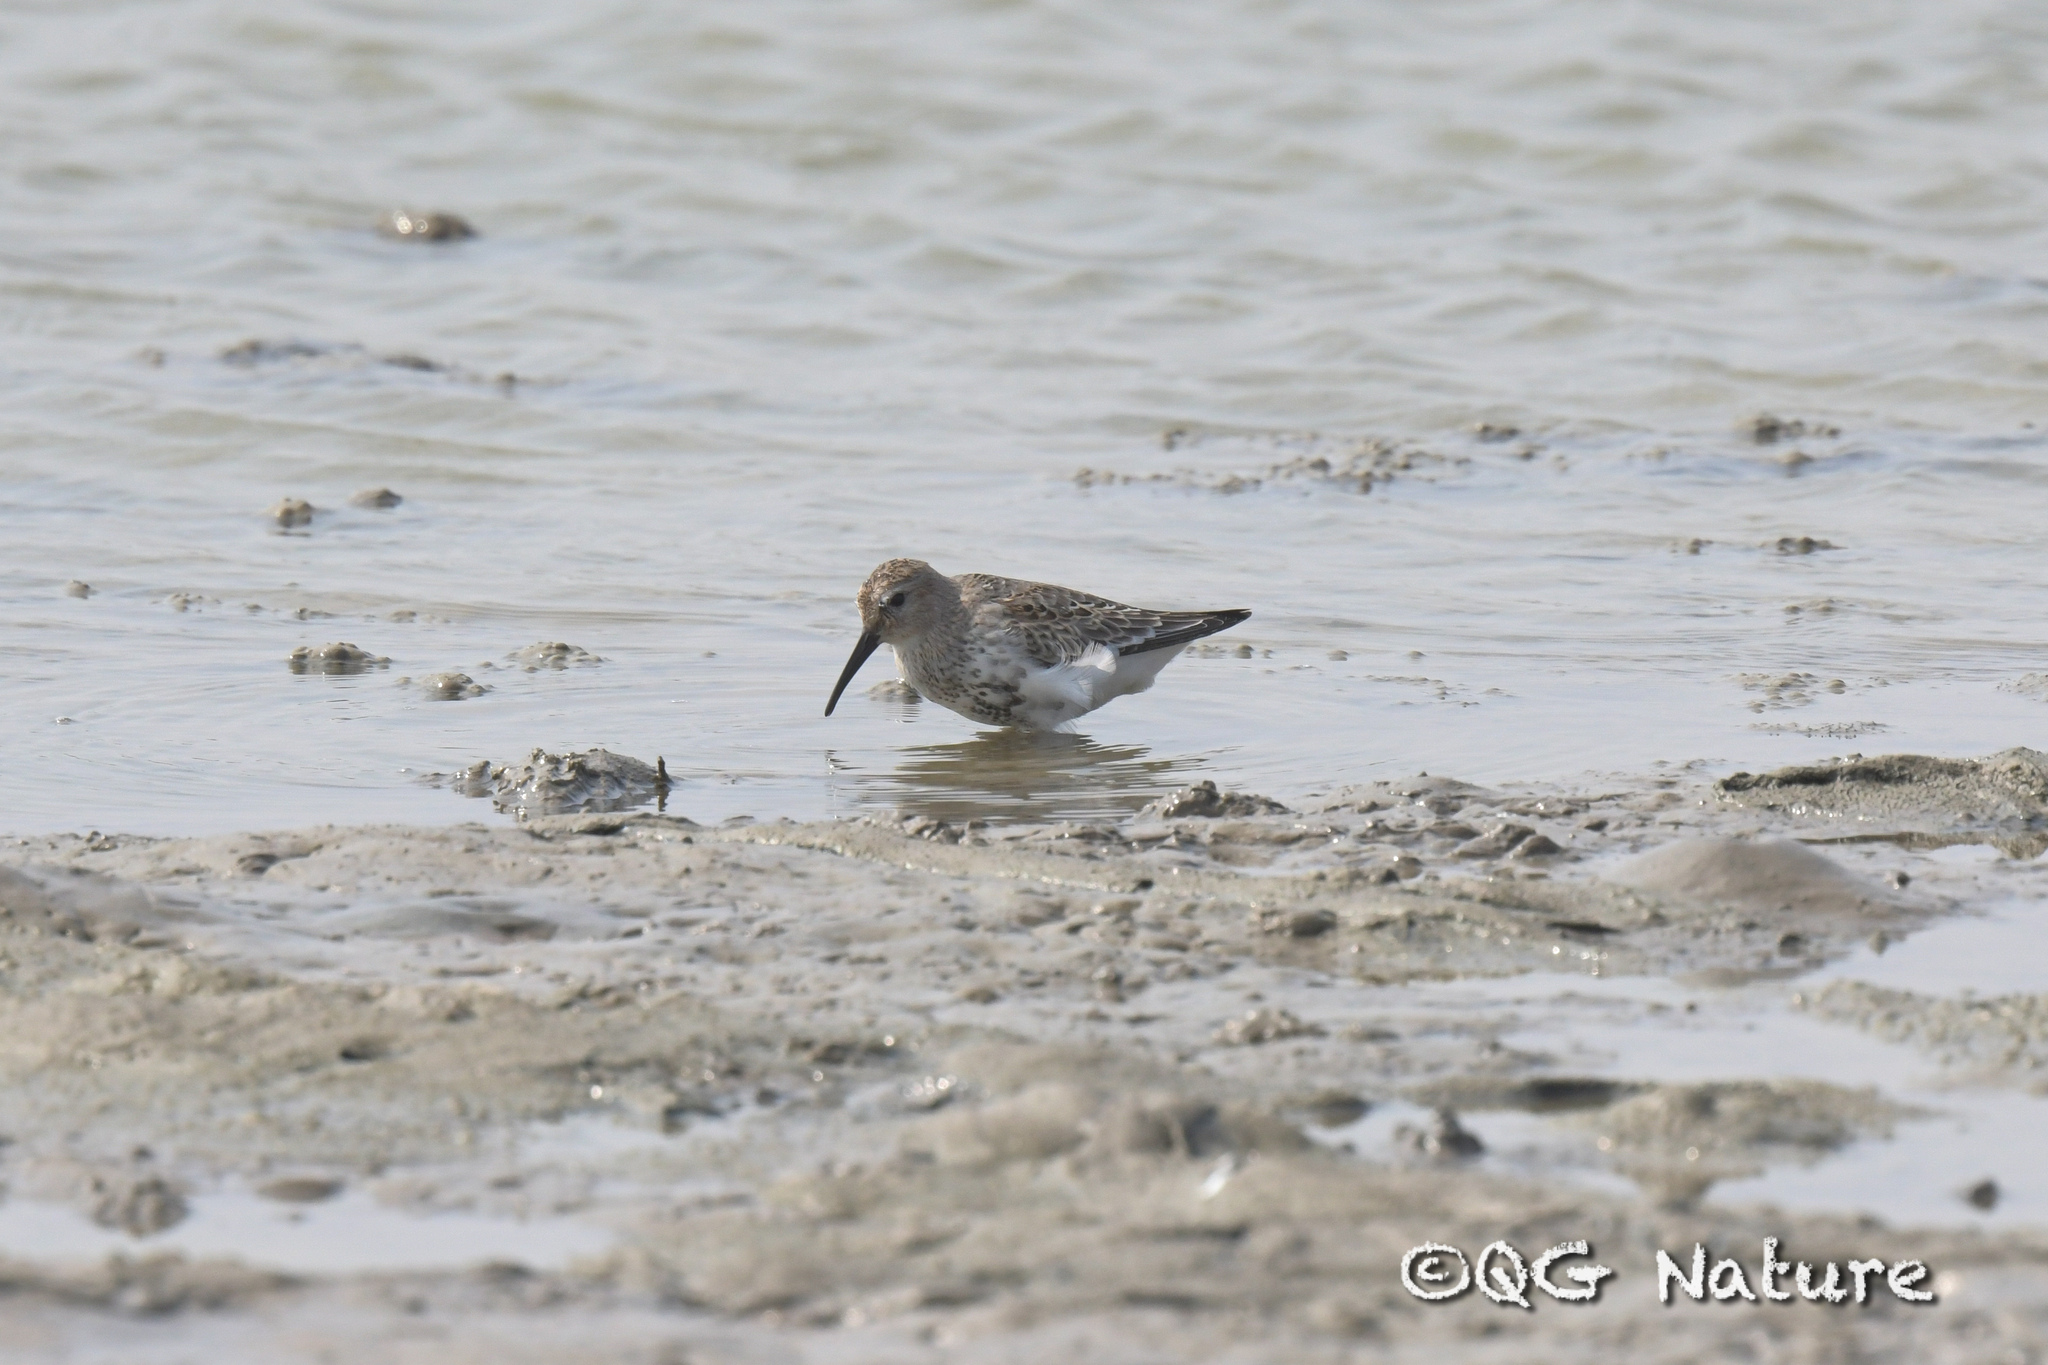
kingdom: Animalia
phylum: Chordata
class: Aves
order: Charadriiformes
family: Scolopacidae
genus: Calidris
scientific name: Calidris alpina
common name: Dunlin
